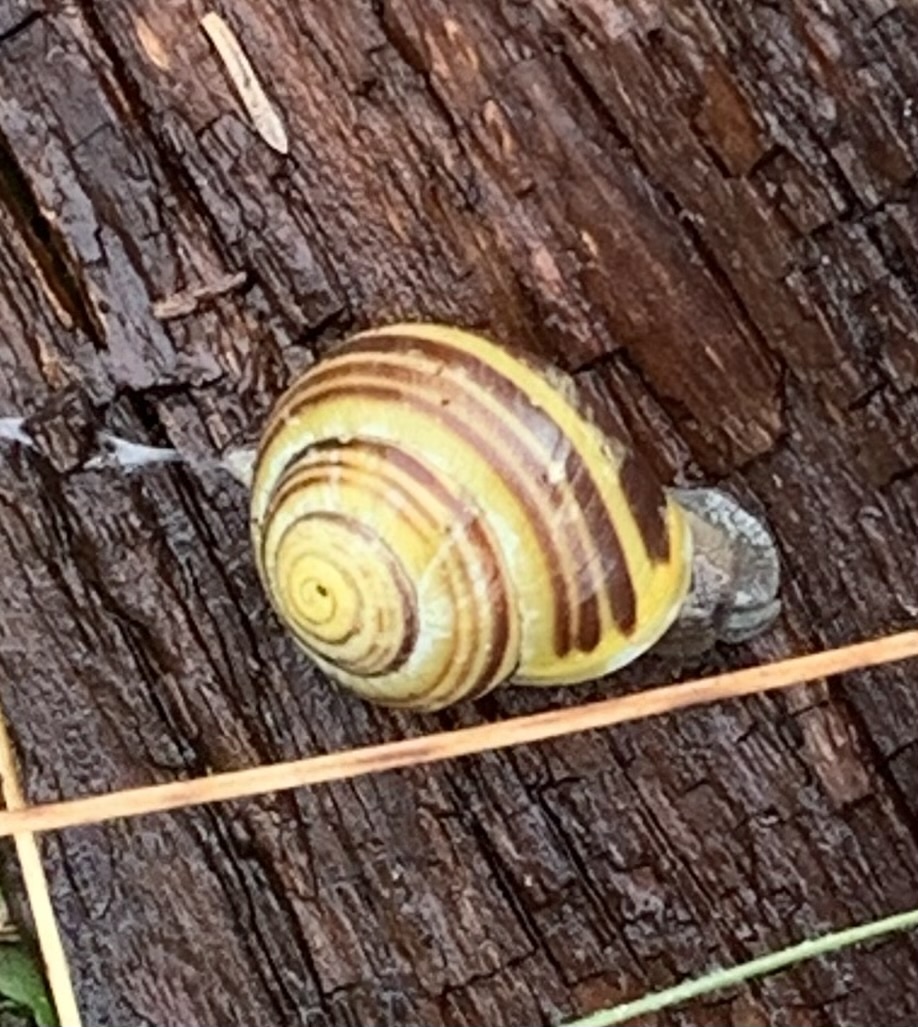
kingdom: Animalia
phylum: Mollusca
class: Gastropoda
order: Stylommatophora
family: Helicidae
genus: Cepaea
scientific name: Cepaea hortensis
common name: White-lip gardensnail
